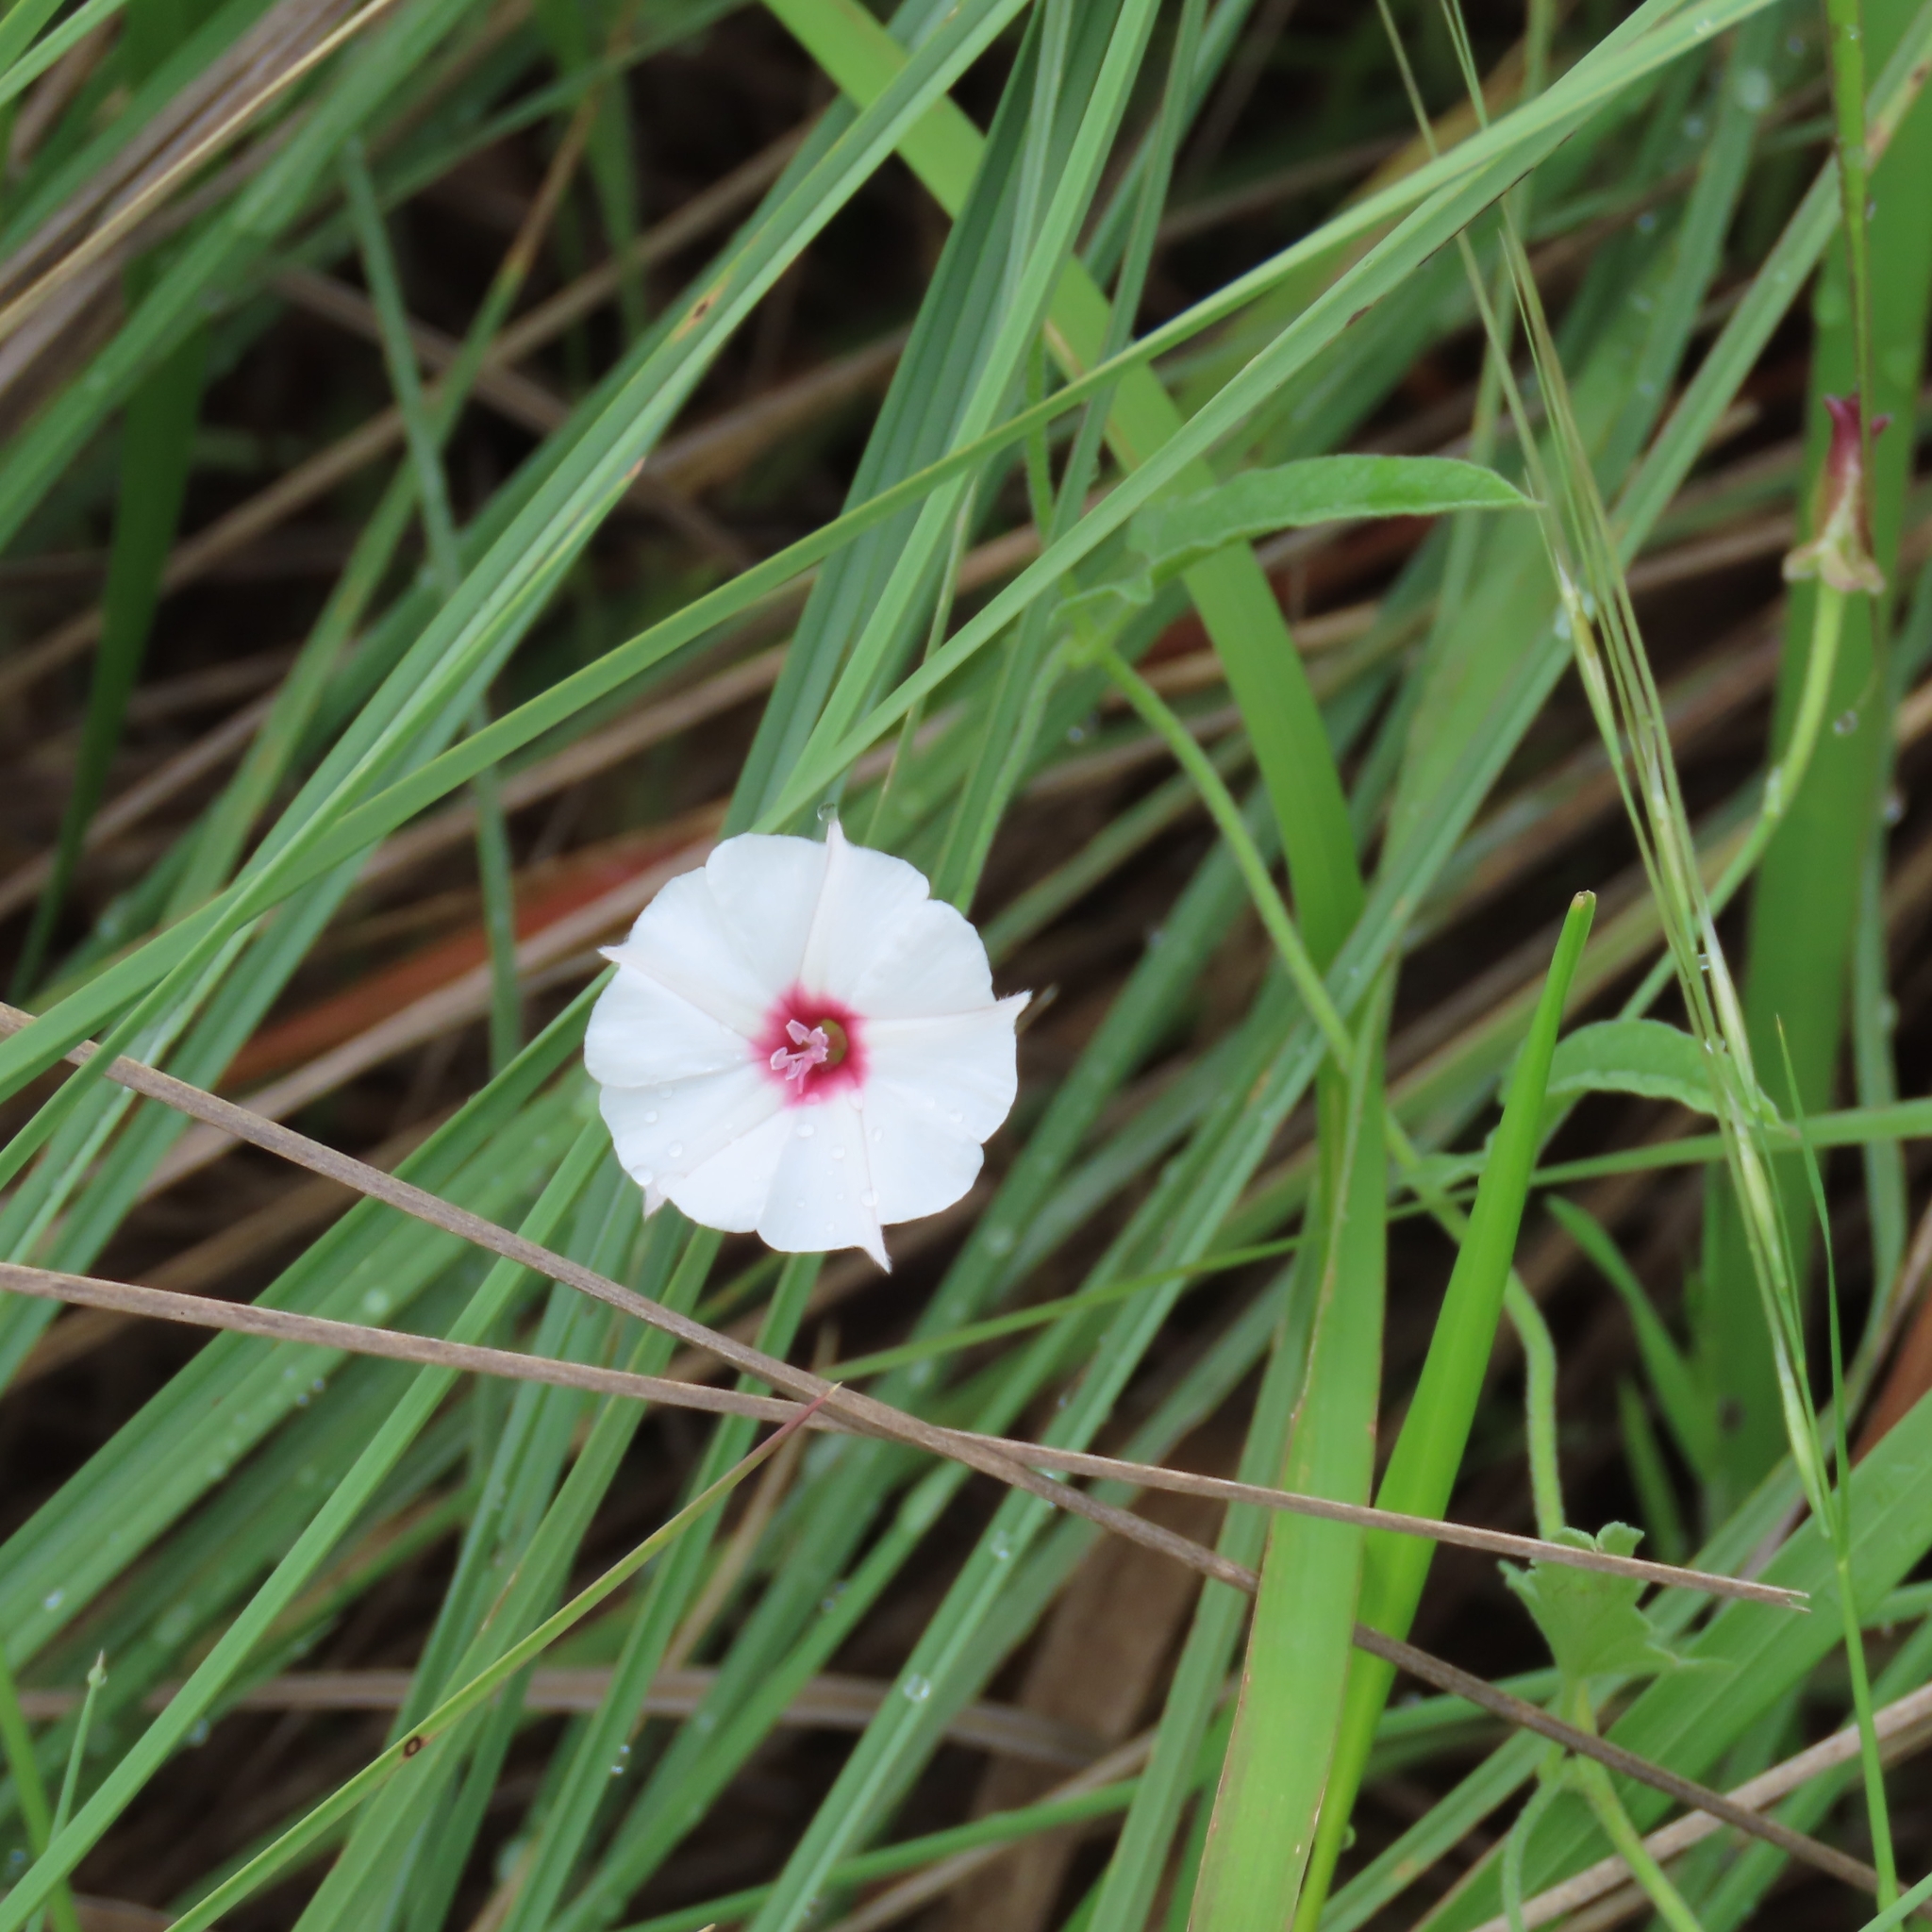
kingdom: Plantae
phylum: Tracheophyta
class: Magnoliopsida
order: Solanales
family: Convolvulaceae
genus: Convolvulus
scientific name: Convolvulus equitans
